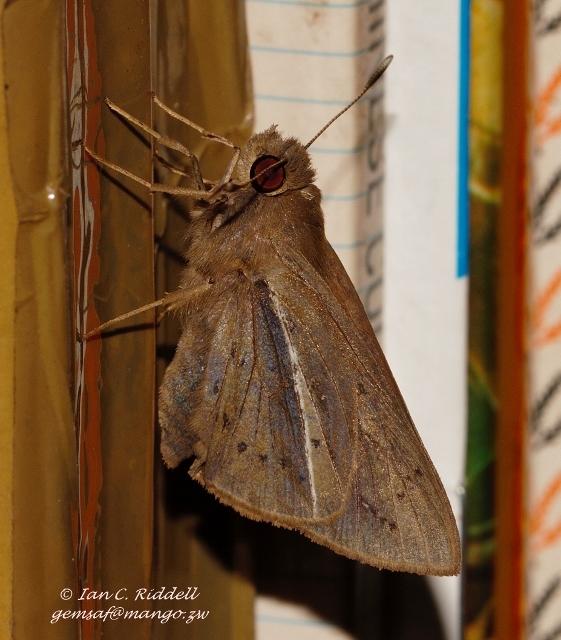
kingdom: Animalia
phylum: Arthropoda
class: Insecta
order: Lepidoptera
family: Hesperiidae
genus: Zophopetes
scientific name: Zophopetes dysmephila
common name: Palm-tree nightfighter
